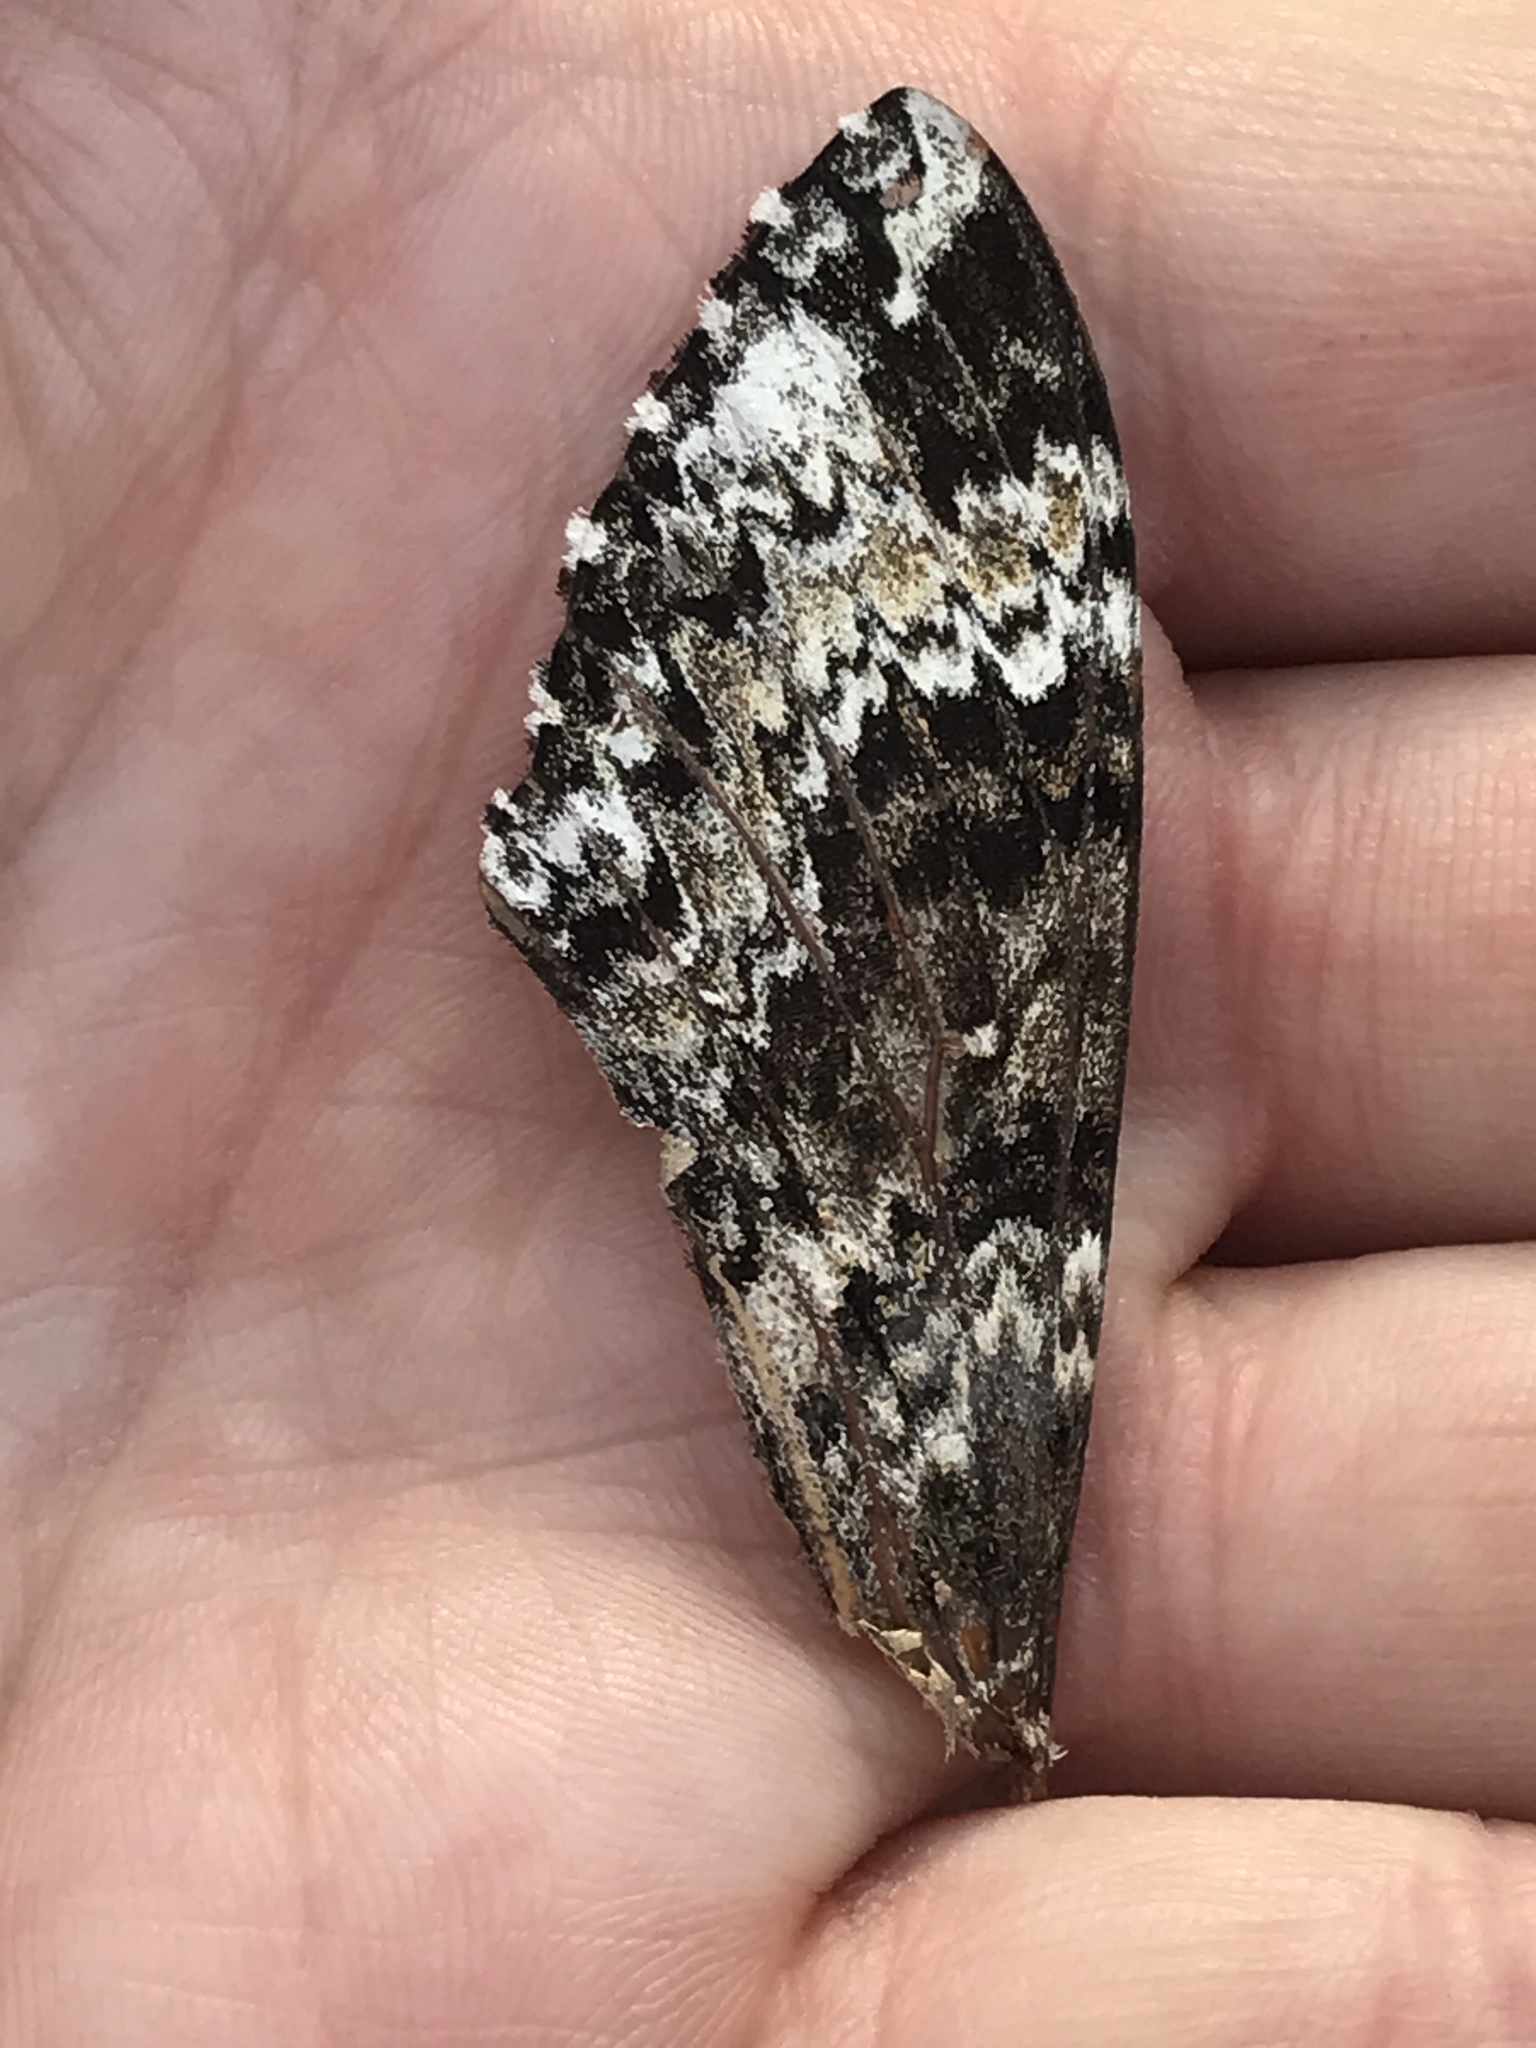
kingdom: Animalia
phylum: Arthropoda
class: Insecta
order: Lepidoptera
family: Sphingidae
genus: Manduca
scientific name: Manduca rustica
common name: Rustic sphinx
